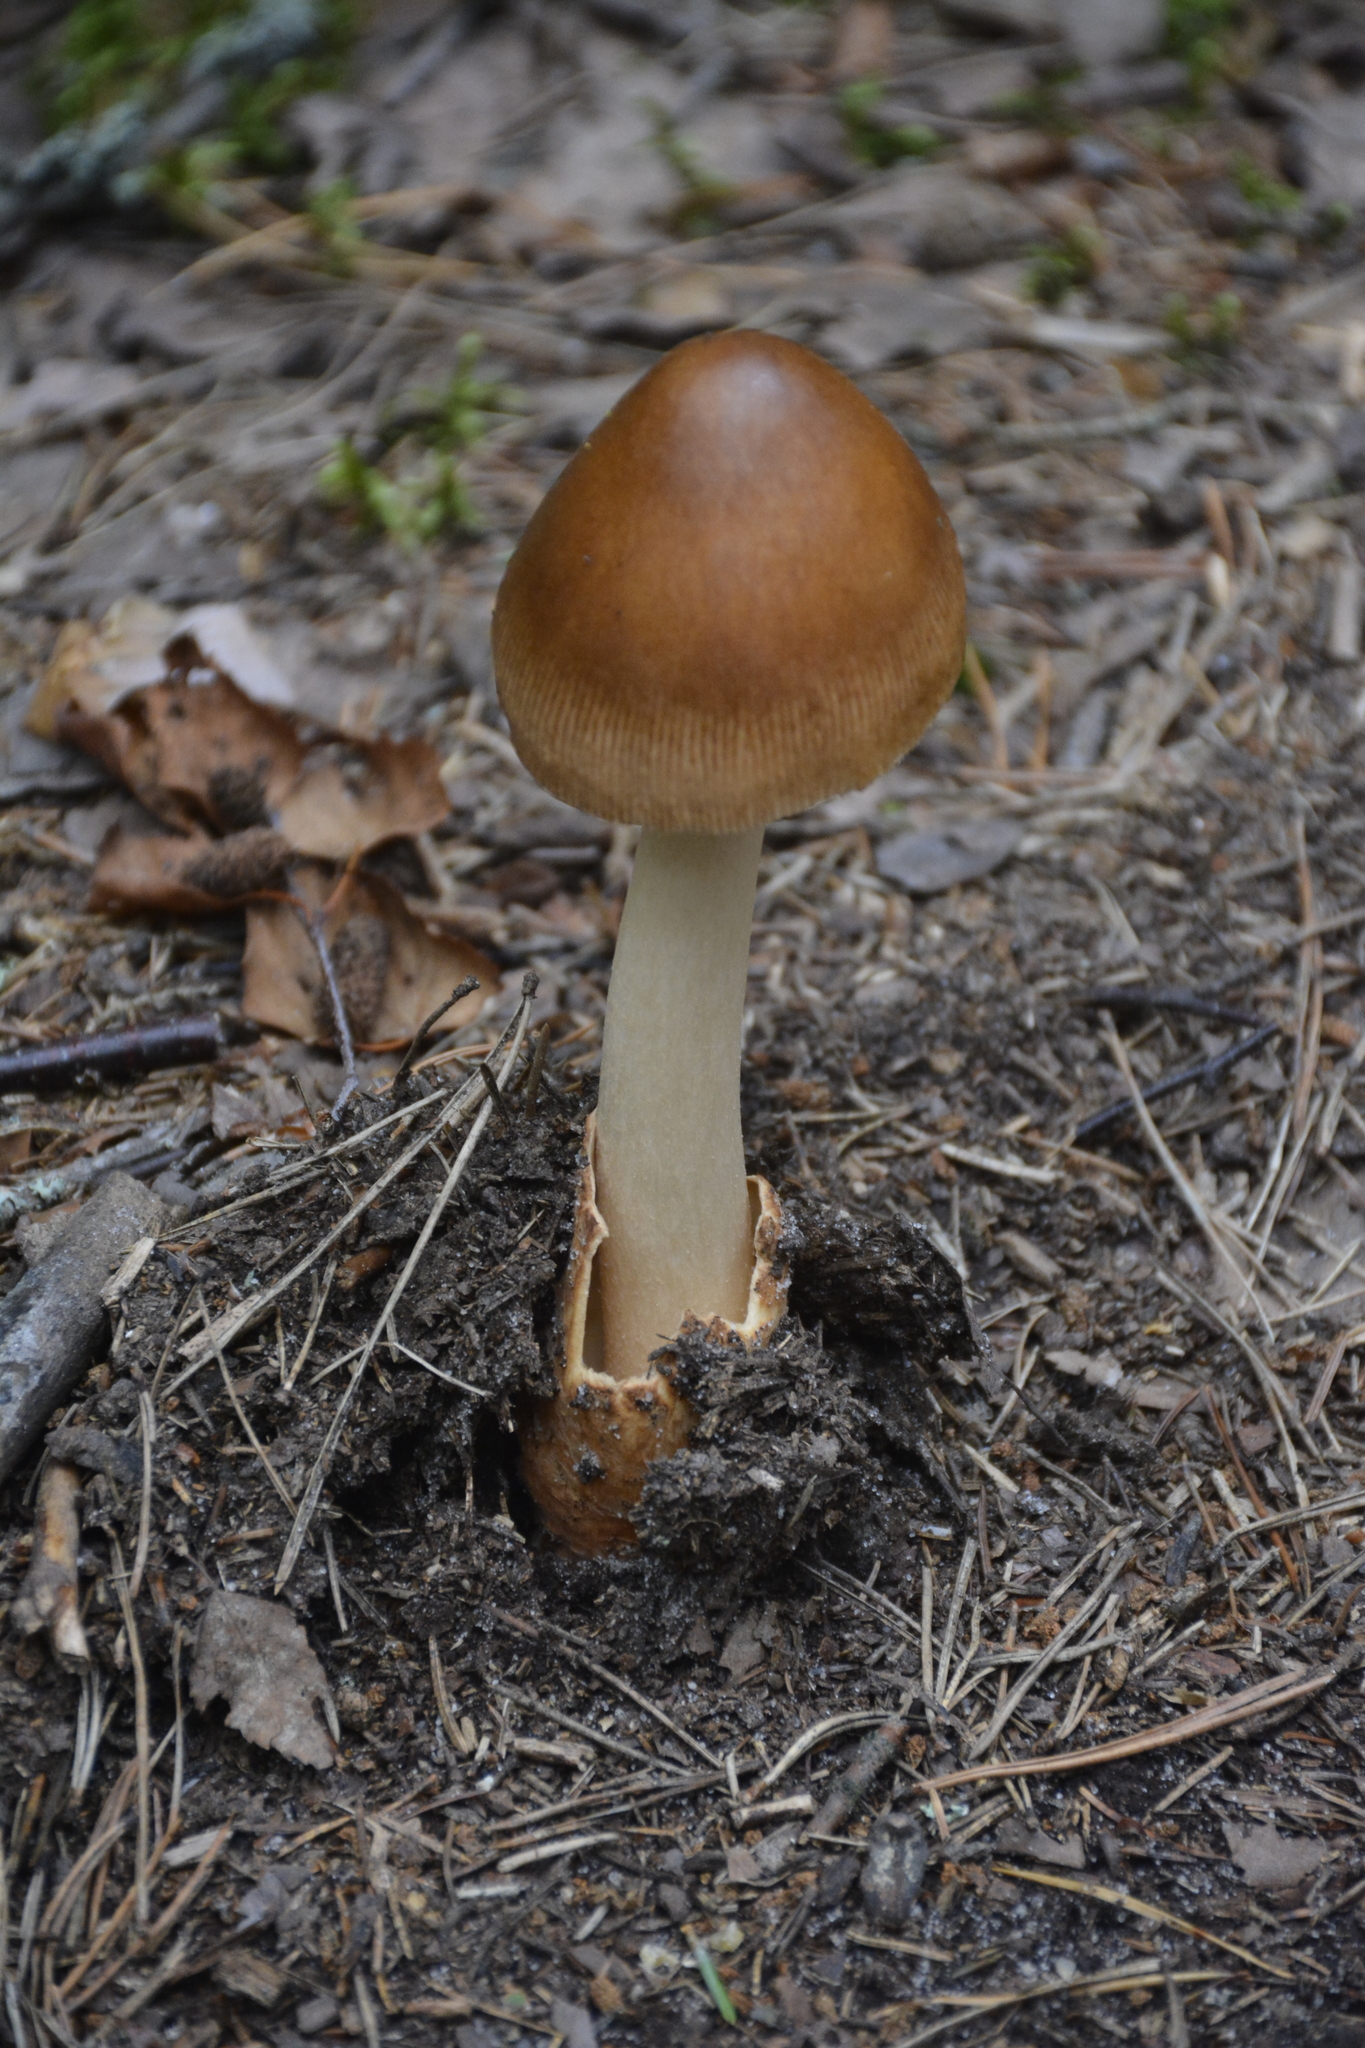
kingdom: Fungi
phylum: Basidiomycota
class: Agaricomycetes
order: Agaricales
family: Amanitaceae
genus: Amanita
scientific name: Amanita fulva
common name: Tawny grisette
